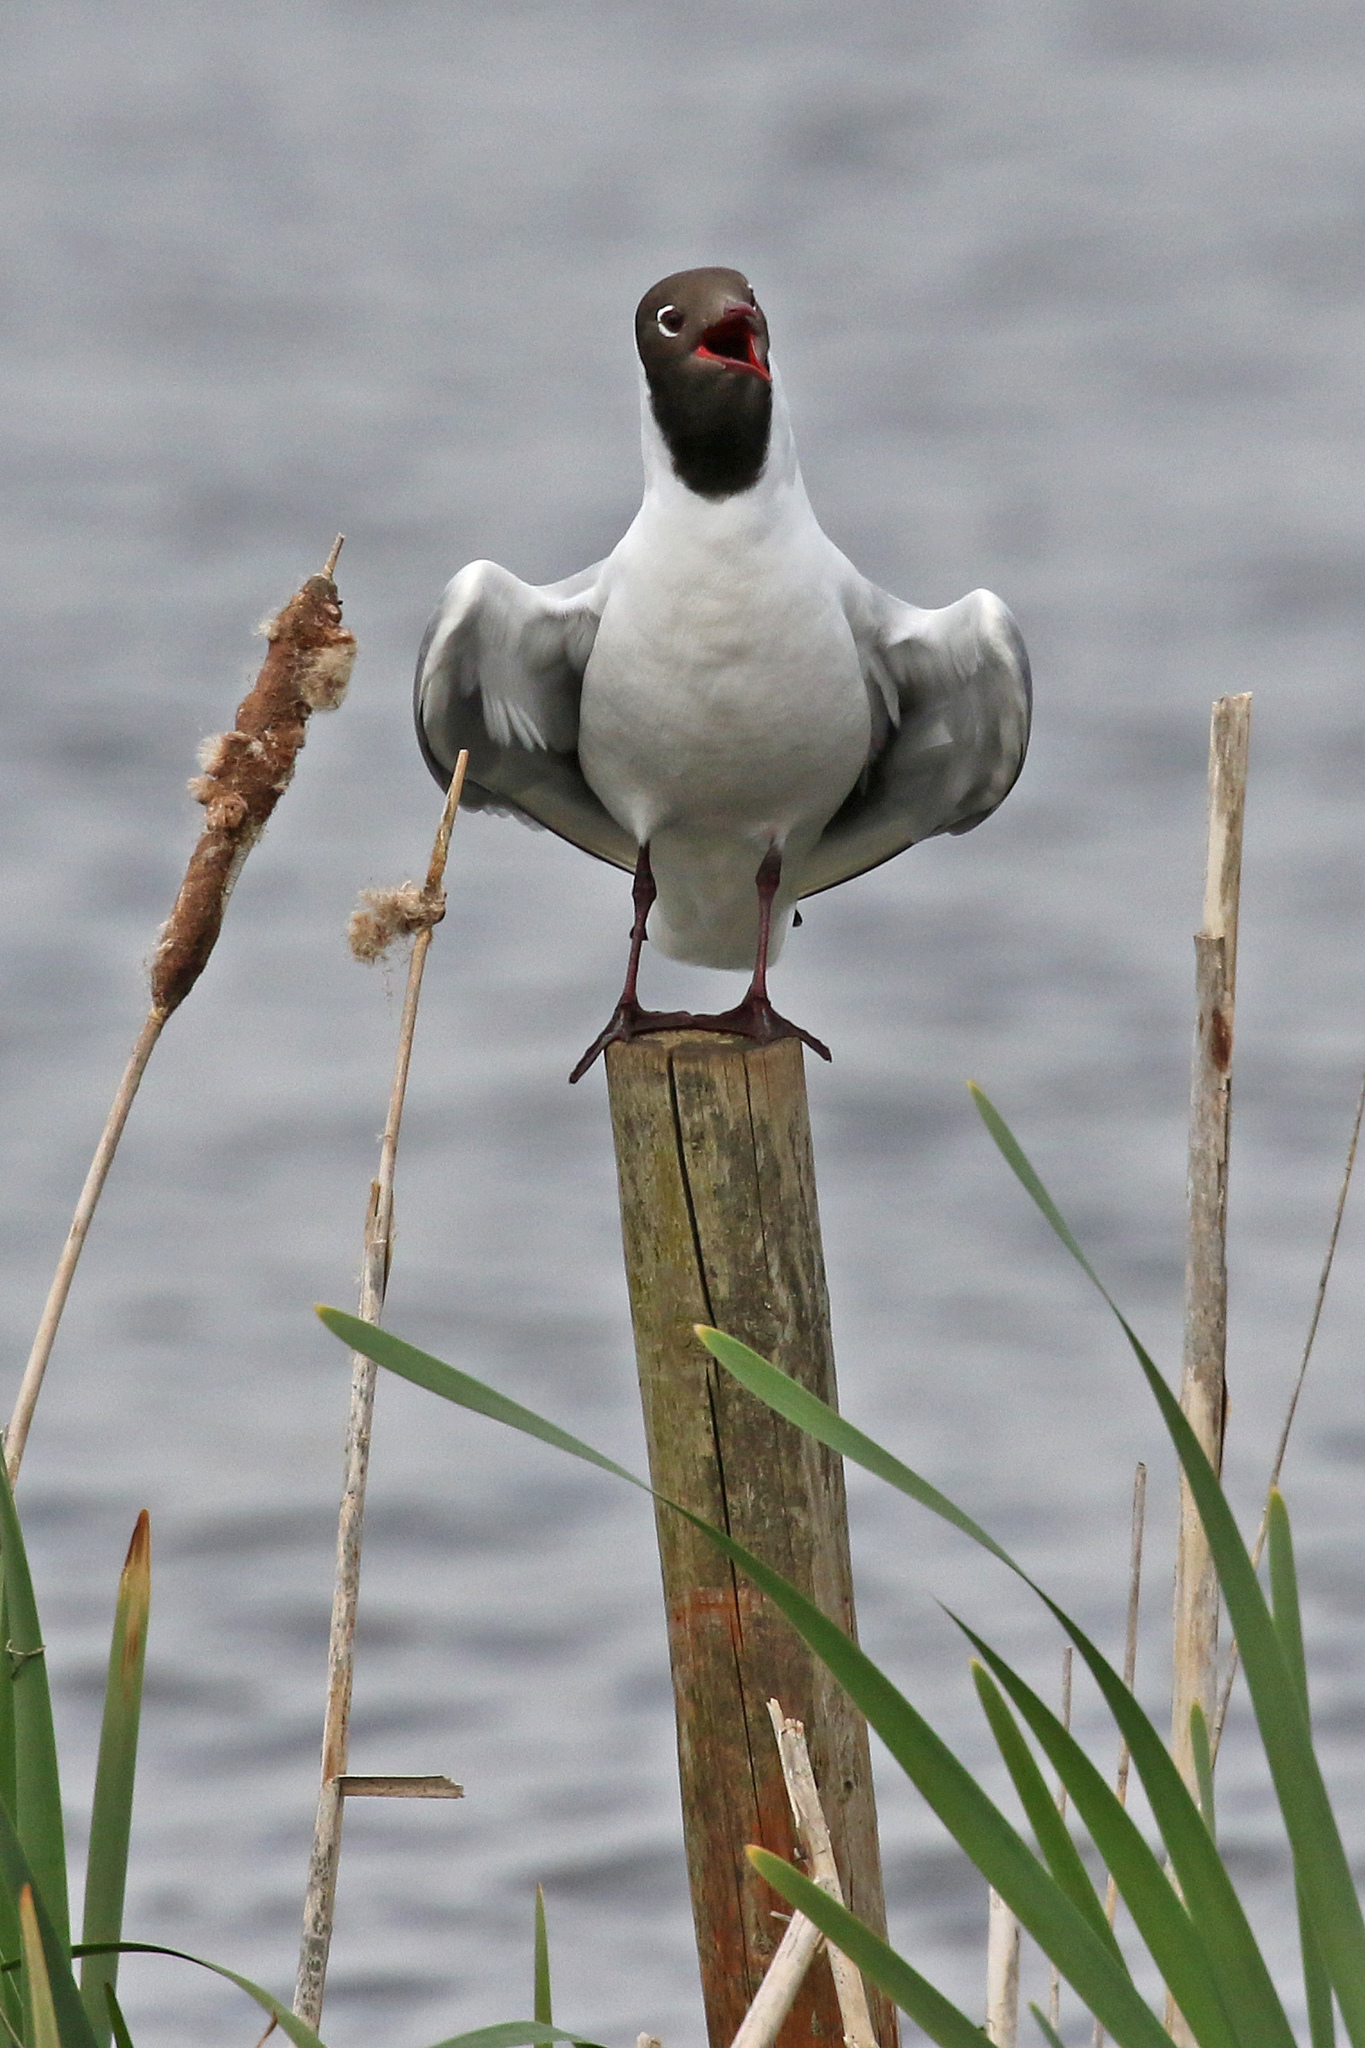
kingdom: Animalia
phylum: Chordata
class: Aves
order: Charadriiformes
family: Laridae
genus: Chroicocephalus
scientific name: Chroicocephalus ridibundus
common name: Black-headed gull
